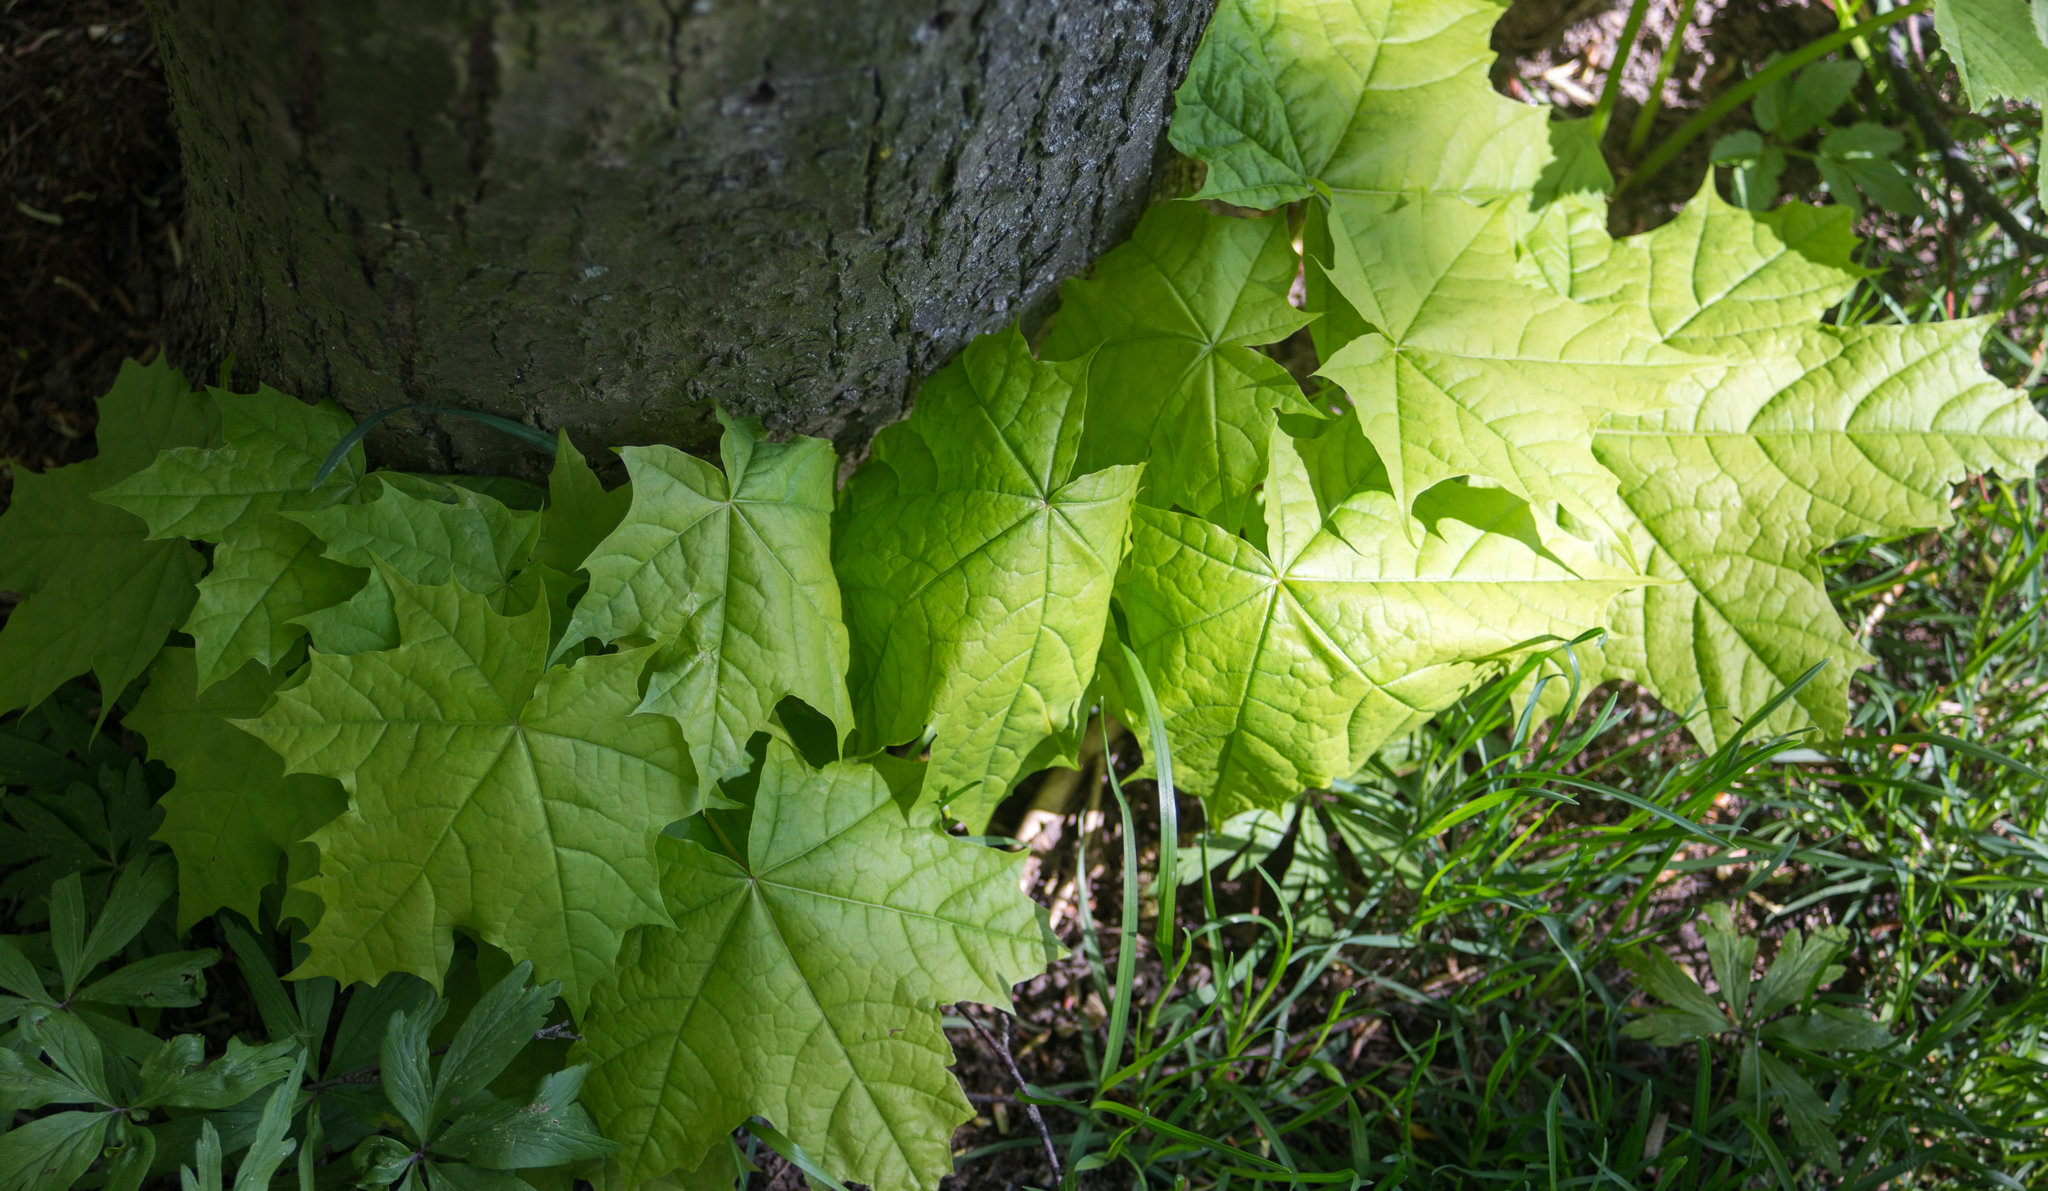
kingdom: Plantae
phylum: Tracheophyta
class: Magnoliopsida
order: Sapindales
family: Sapindaceae
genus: Acer
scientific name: Acer platanoides
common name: Norway maple
